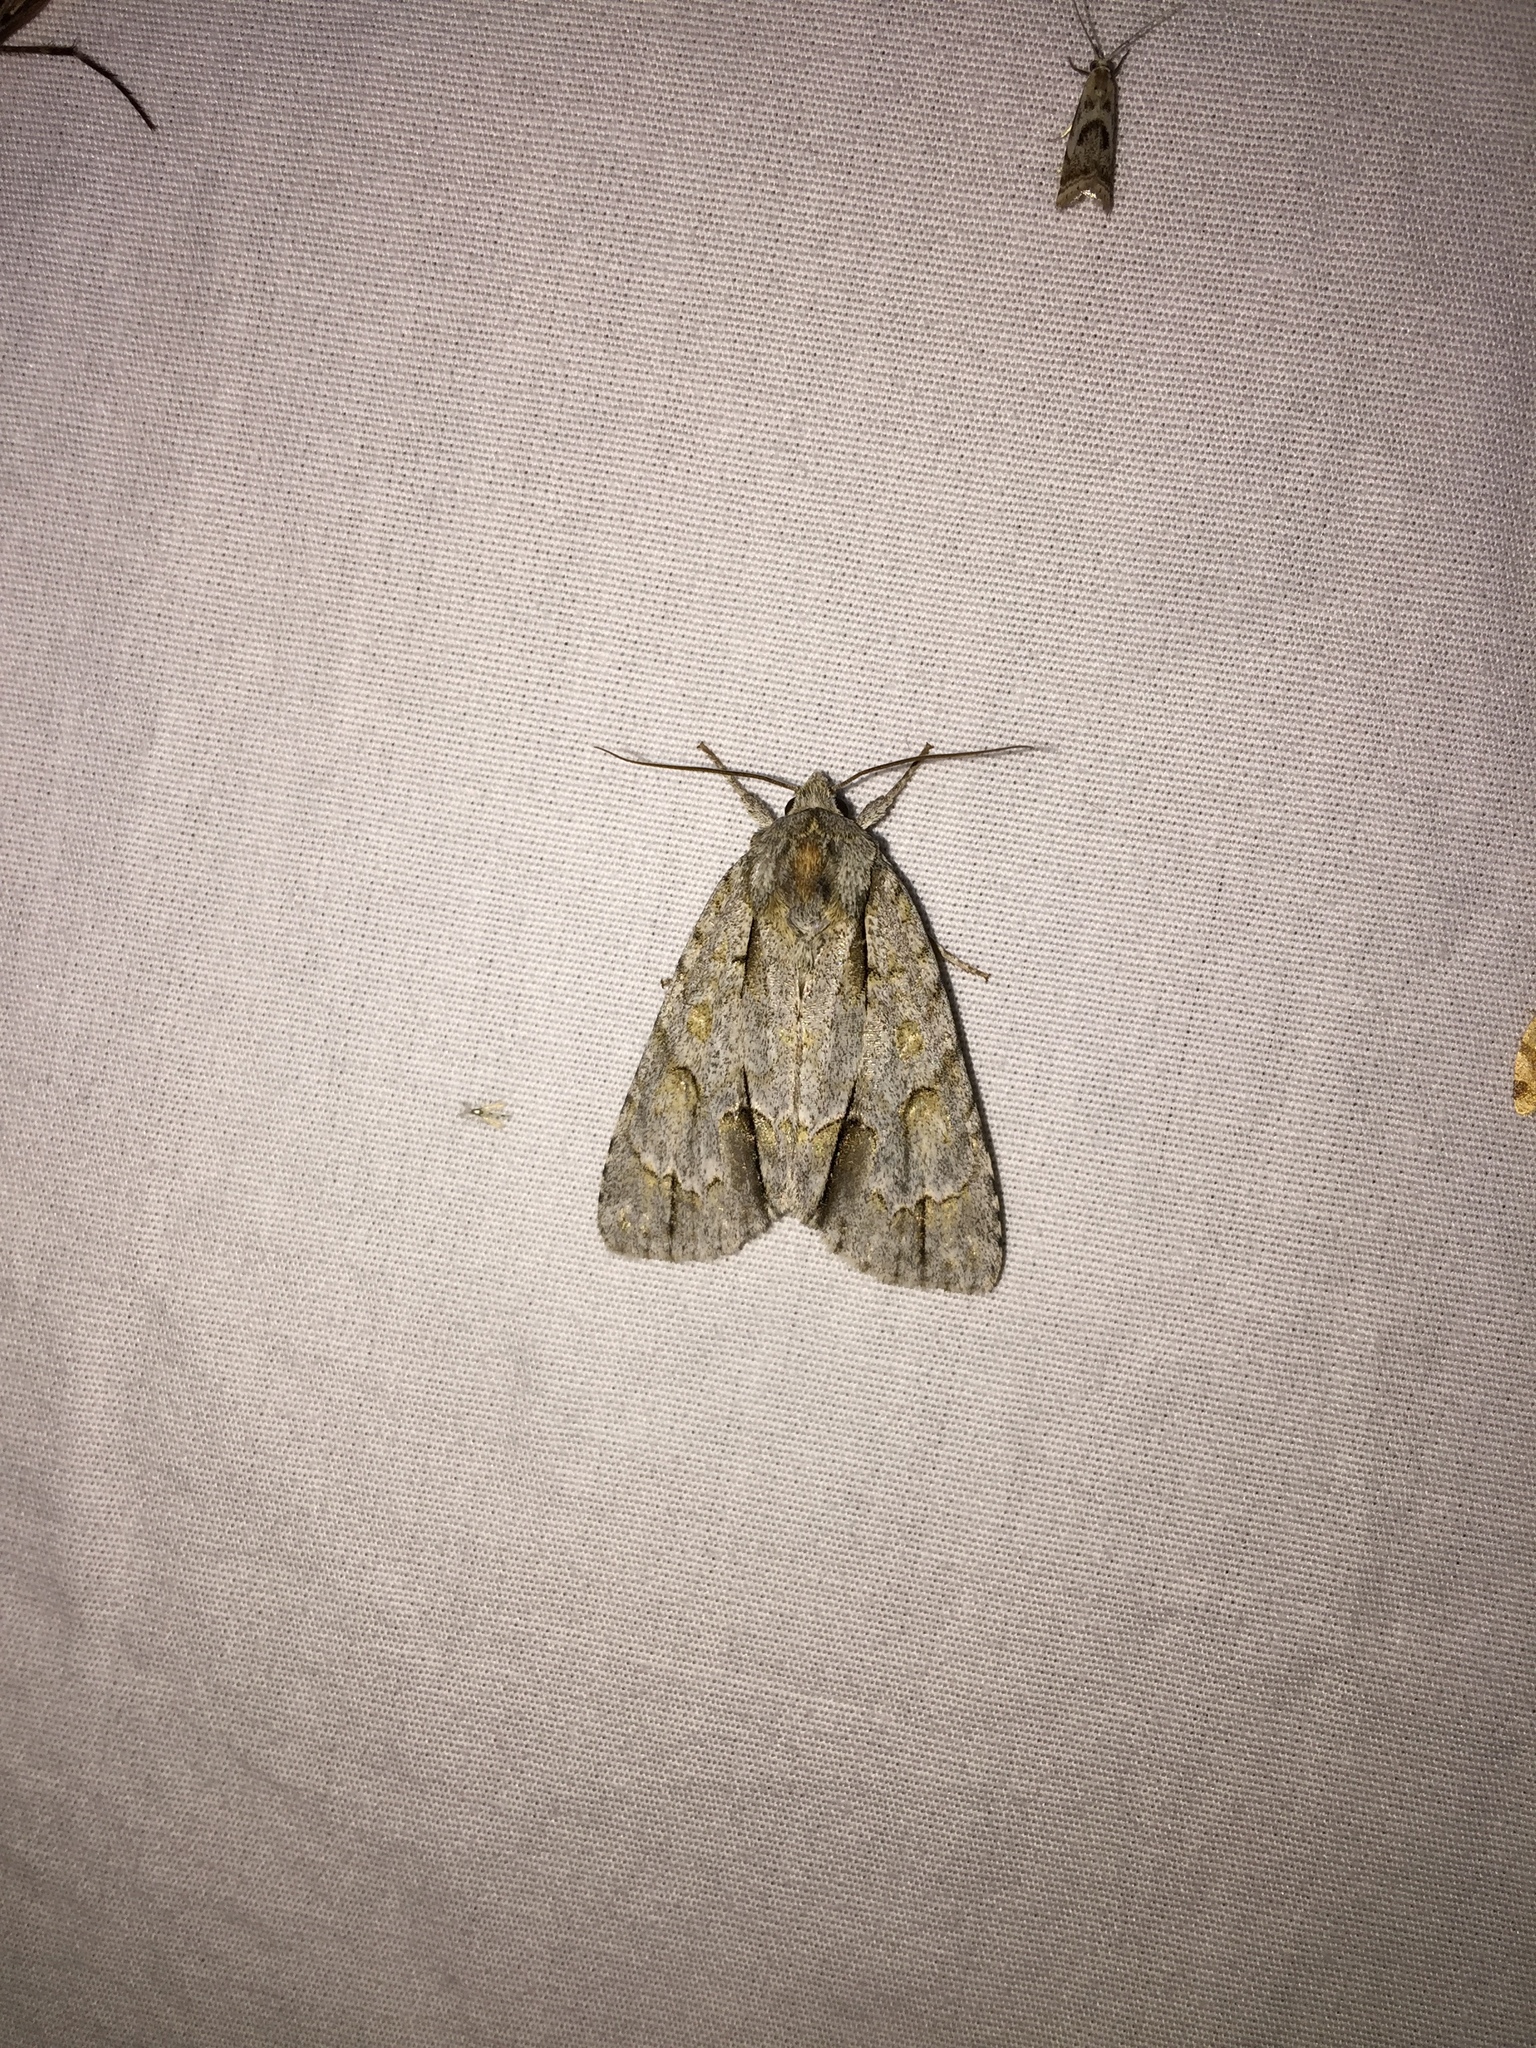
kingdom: Animalia
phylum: Arthropoda
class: Insecta
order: Lepidoptera
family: Noctuidae
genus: Acronicta
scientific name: Acronicta morula
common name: Ochre dagger
